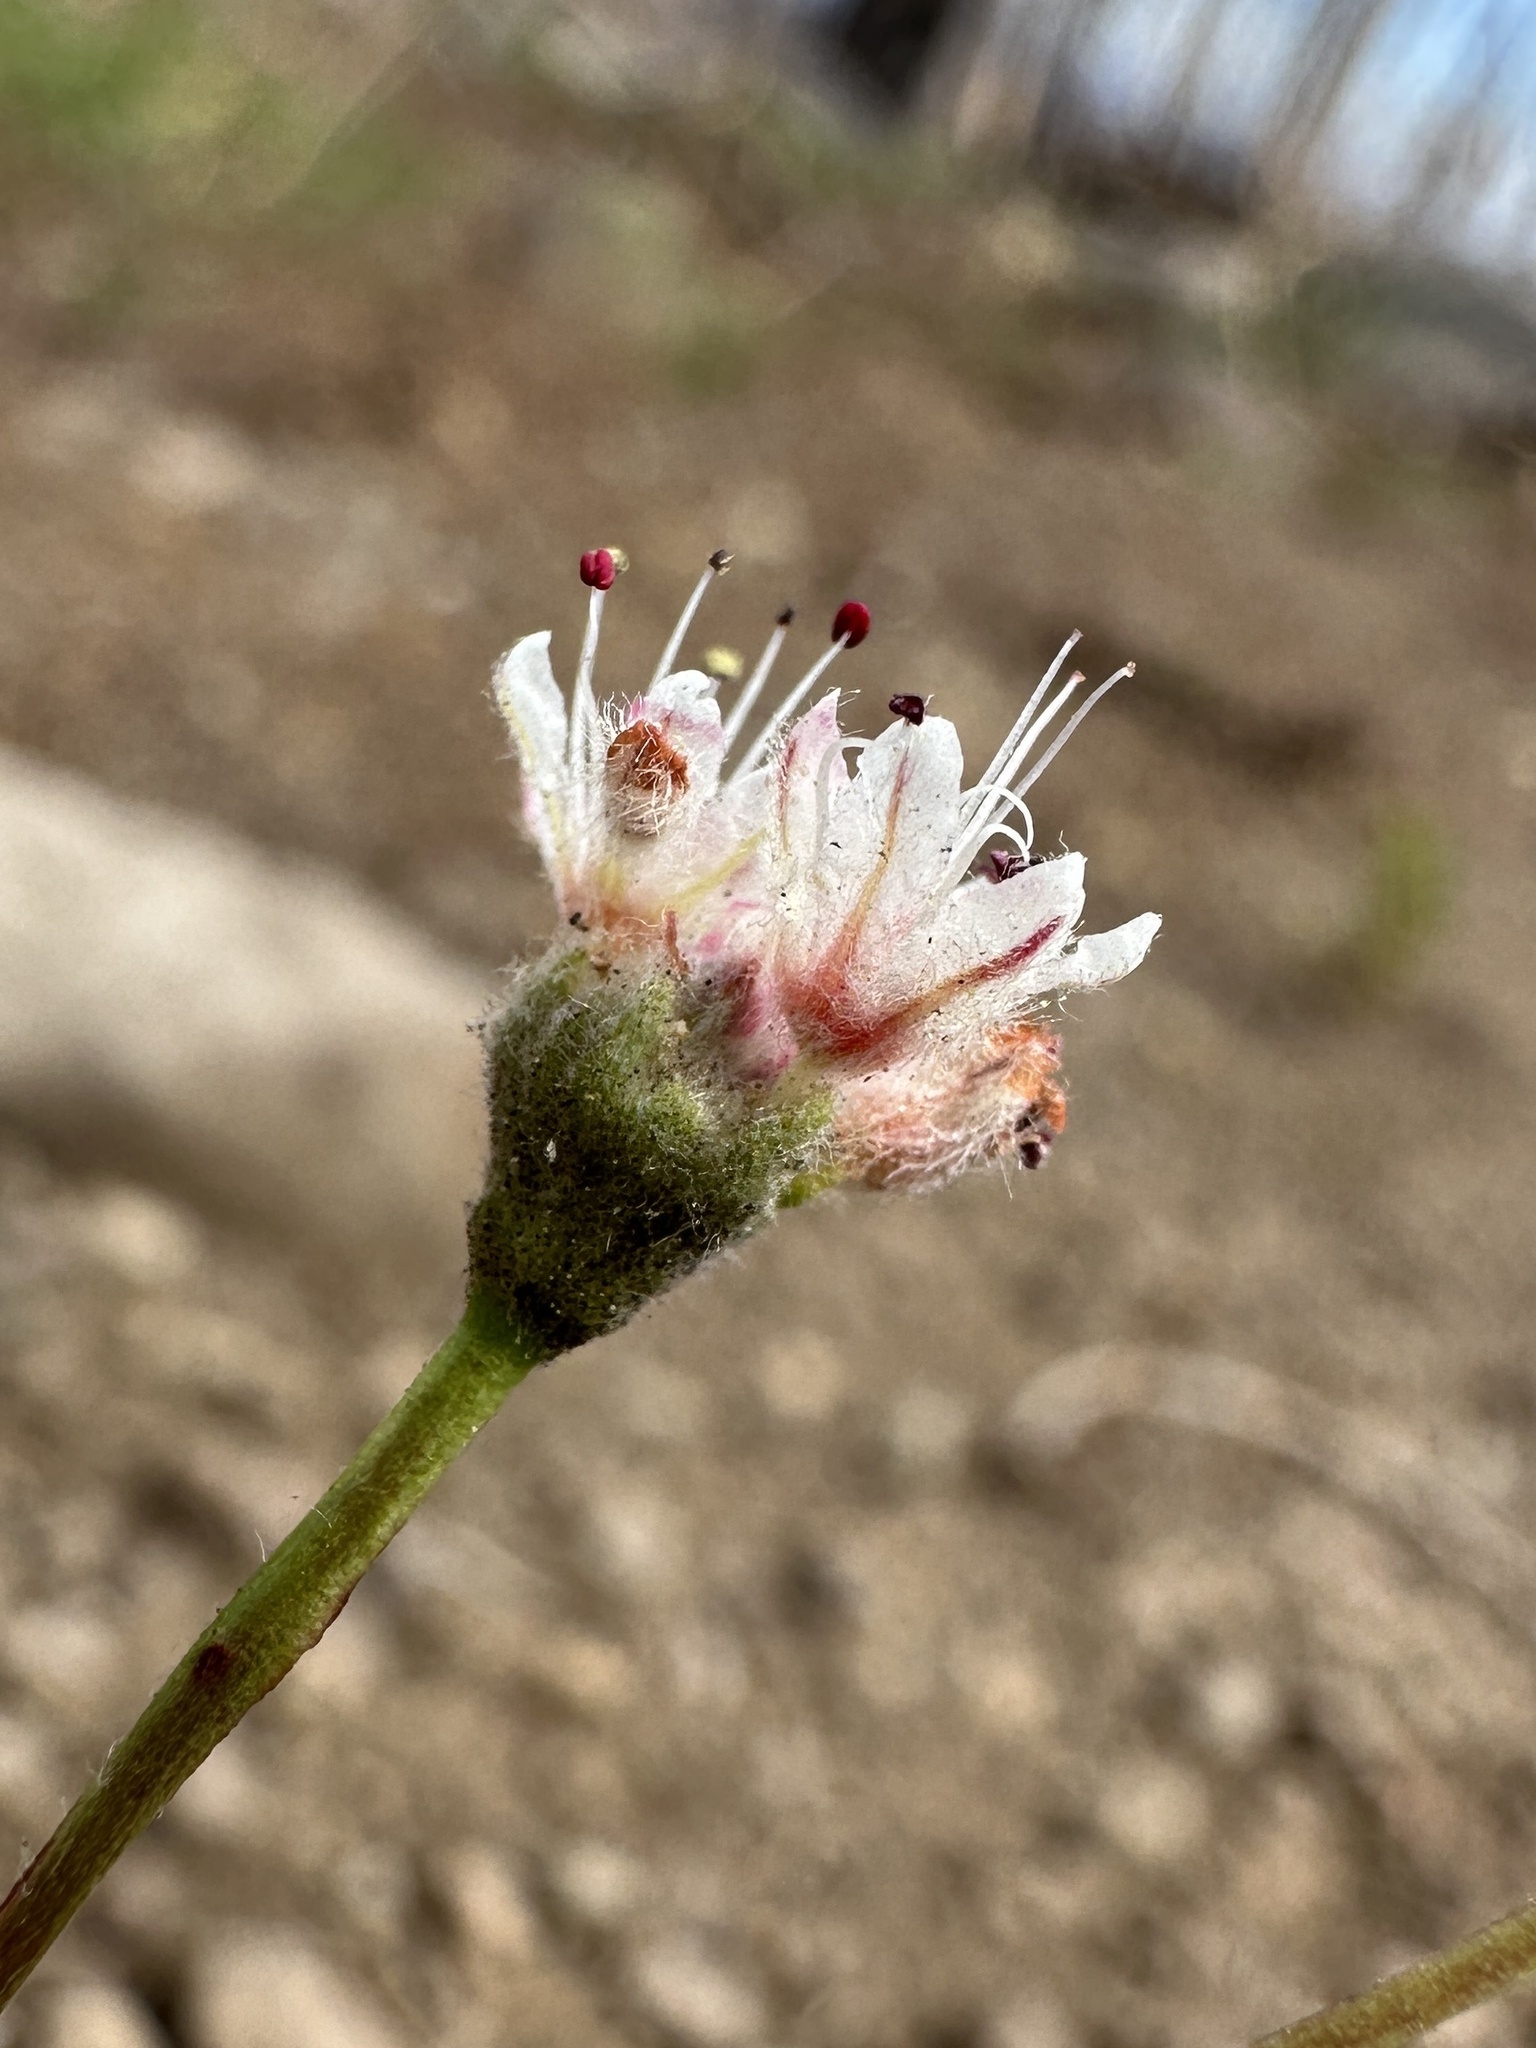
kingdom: Plantae
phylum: Tracheophyta
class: Magnoliopsida
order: Caryophyllales
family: Polygonaceae
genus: Eriogonum
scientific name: Eriogonum spectabile
